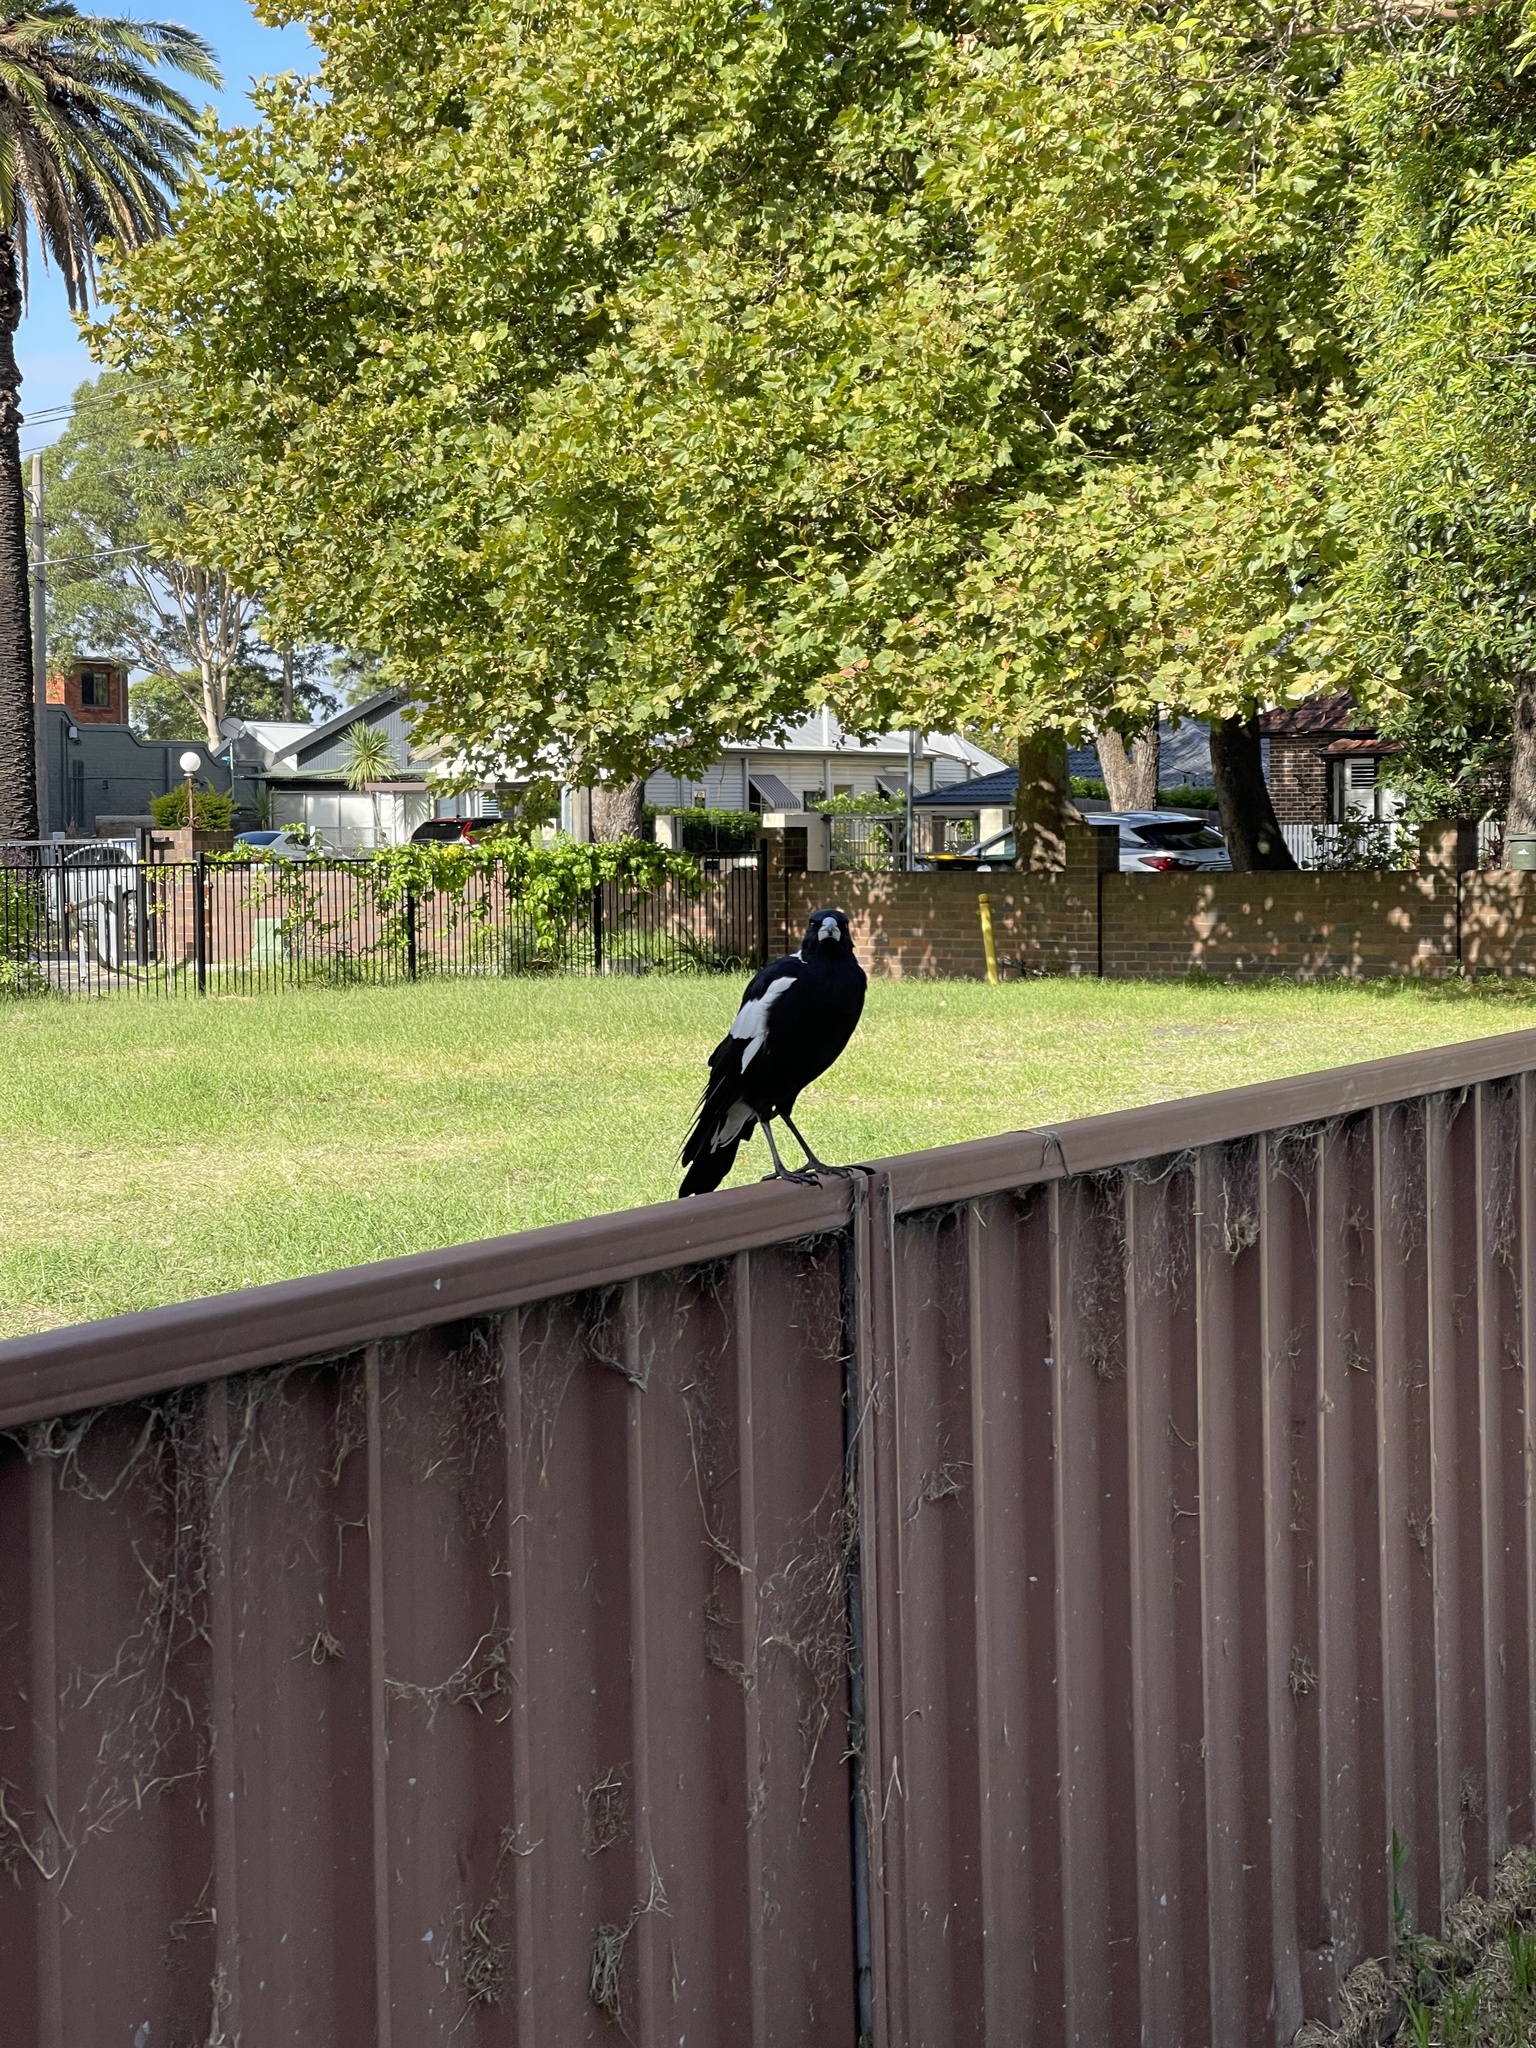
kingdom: Animalia
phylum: Chordata
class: Aves
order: Passeriformes
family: Cracticidae
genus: Gymnorhina
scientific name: Gymnorhina tibicen
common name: Australian magpie
